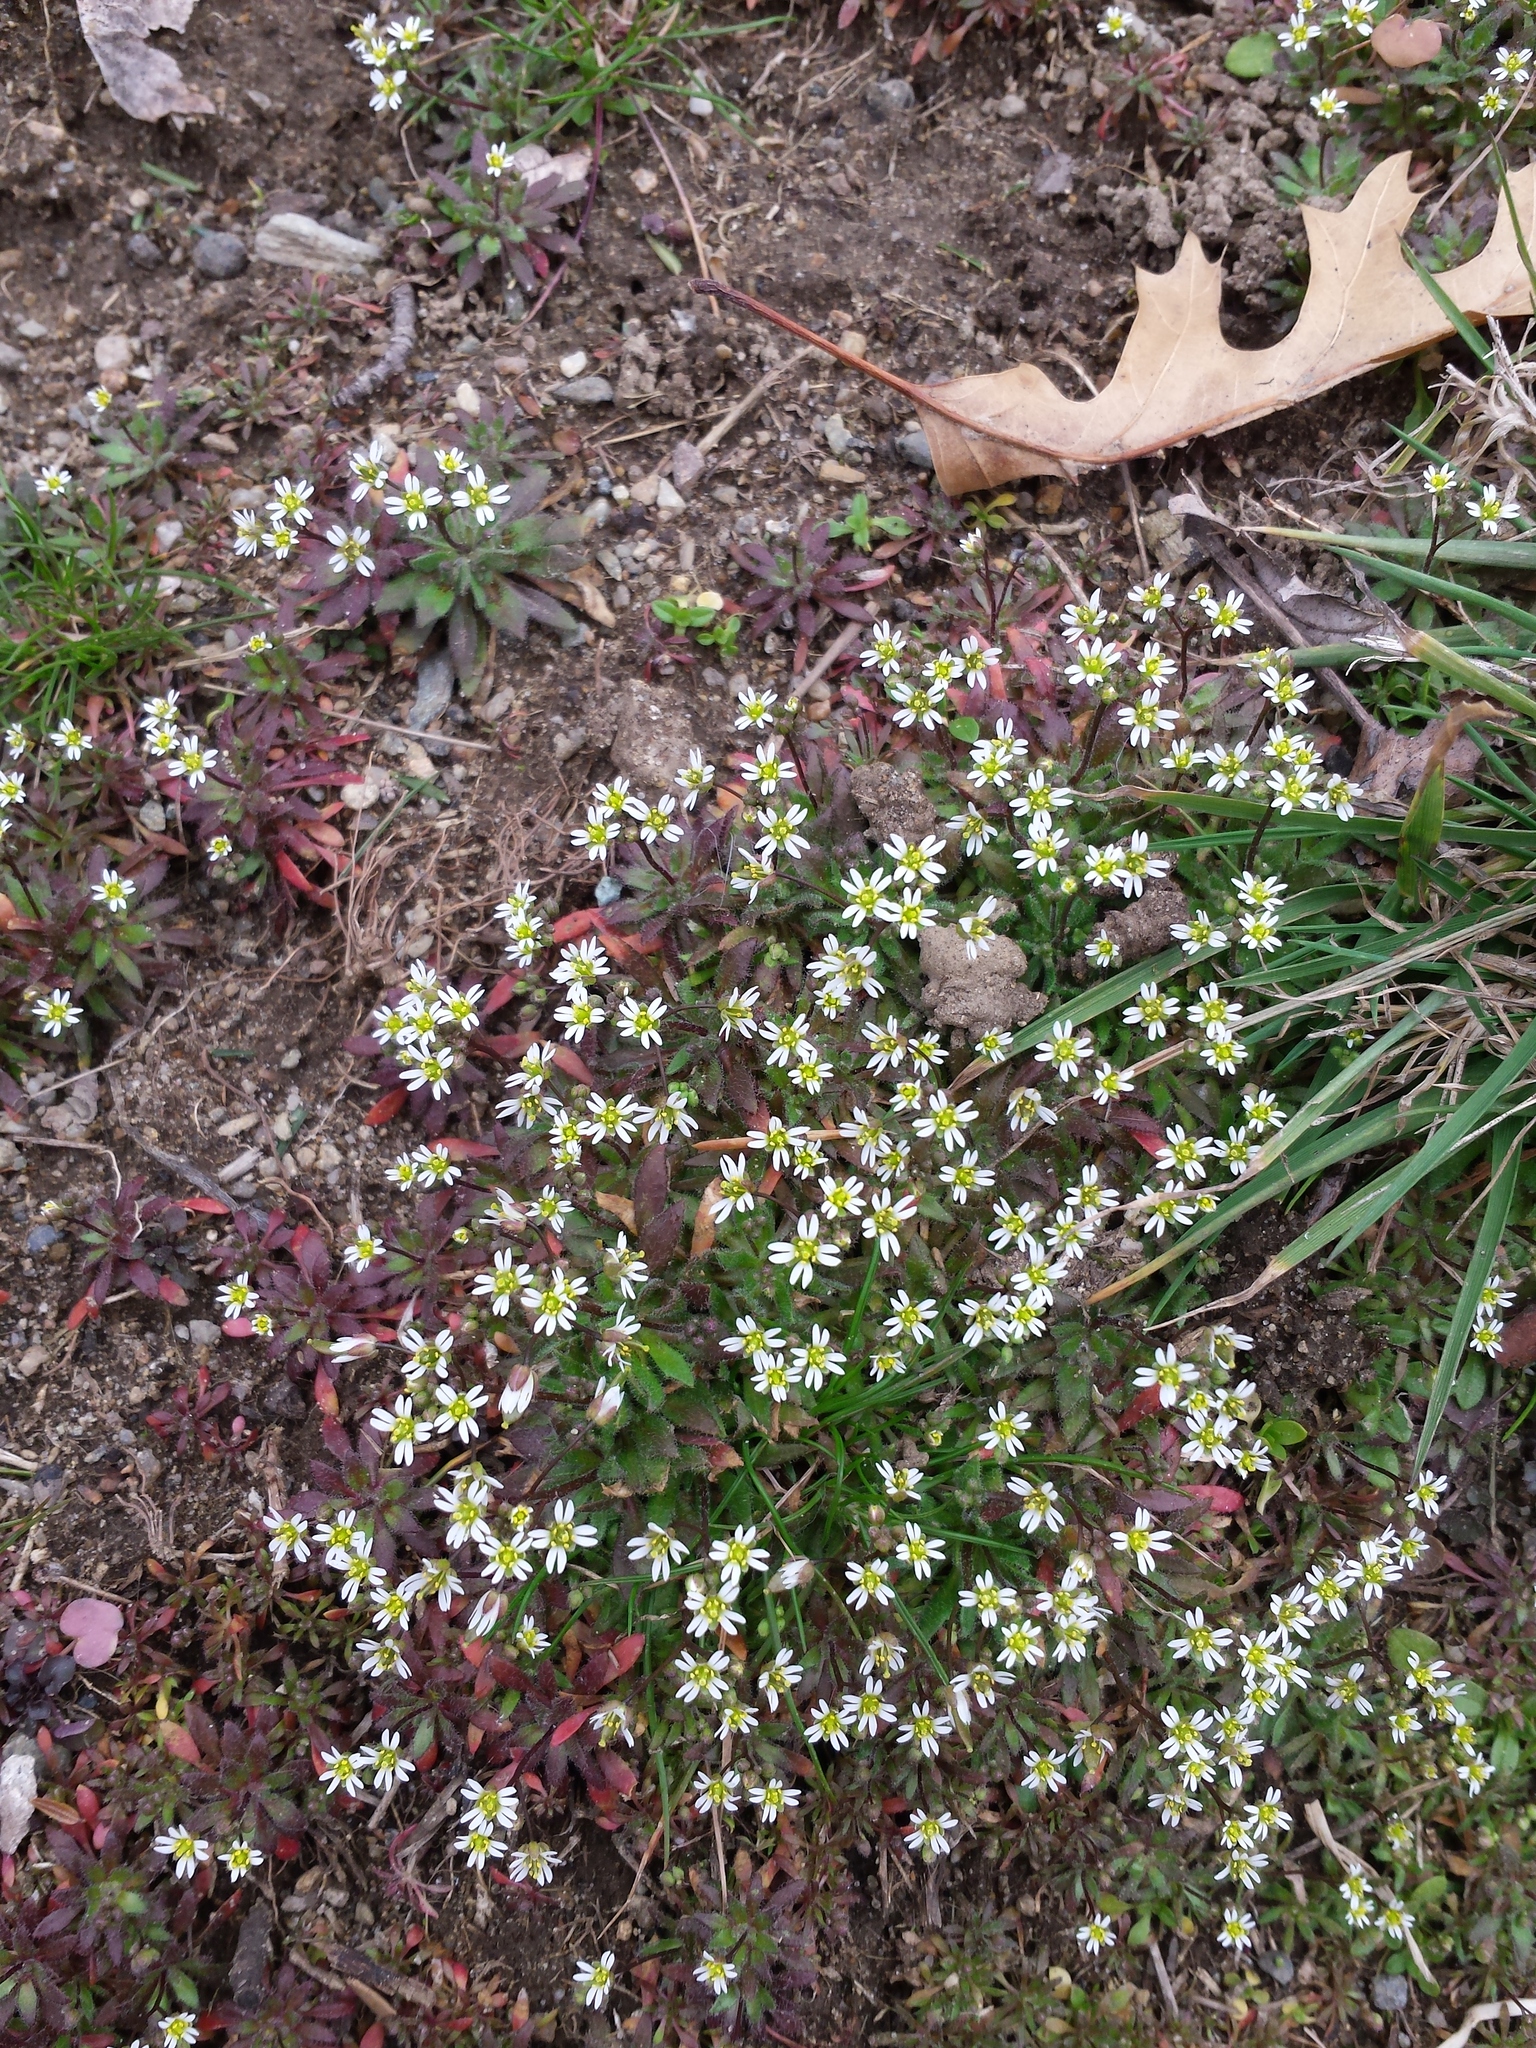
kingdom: Plantae
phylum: Tracheophyta
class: Magnoliopsida
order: Brassicales
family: Brassicaceae
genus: Draba
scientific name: Draba verna
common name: Spring draba
